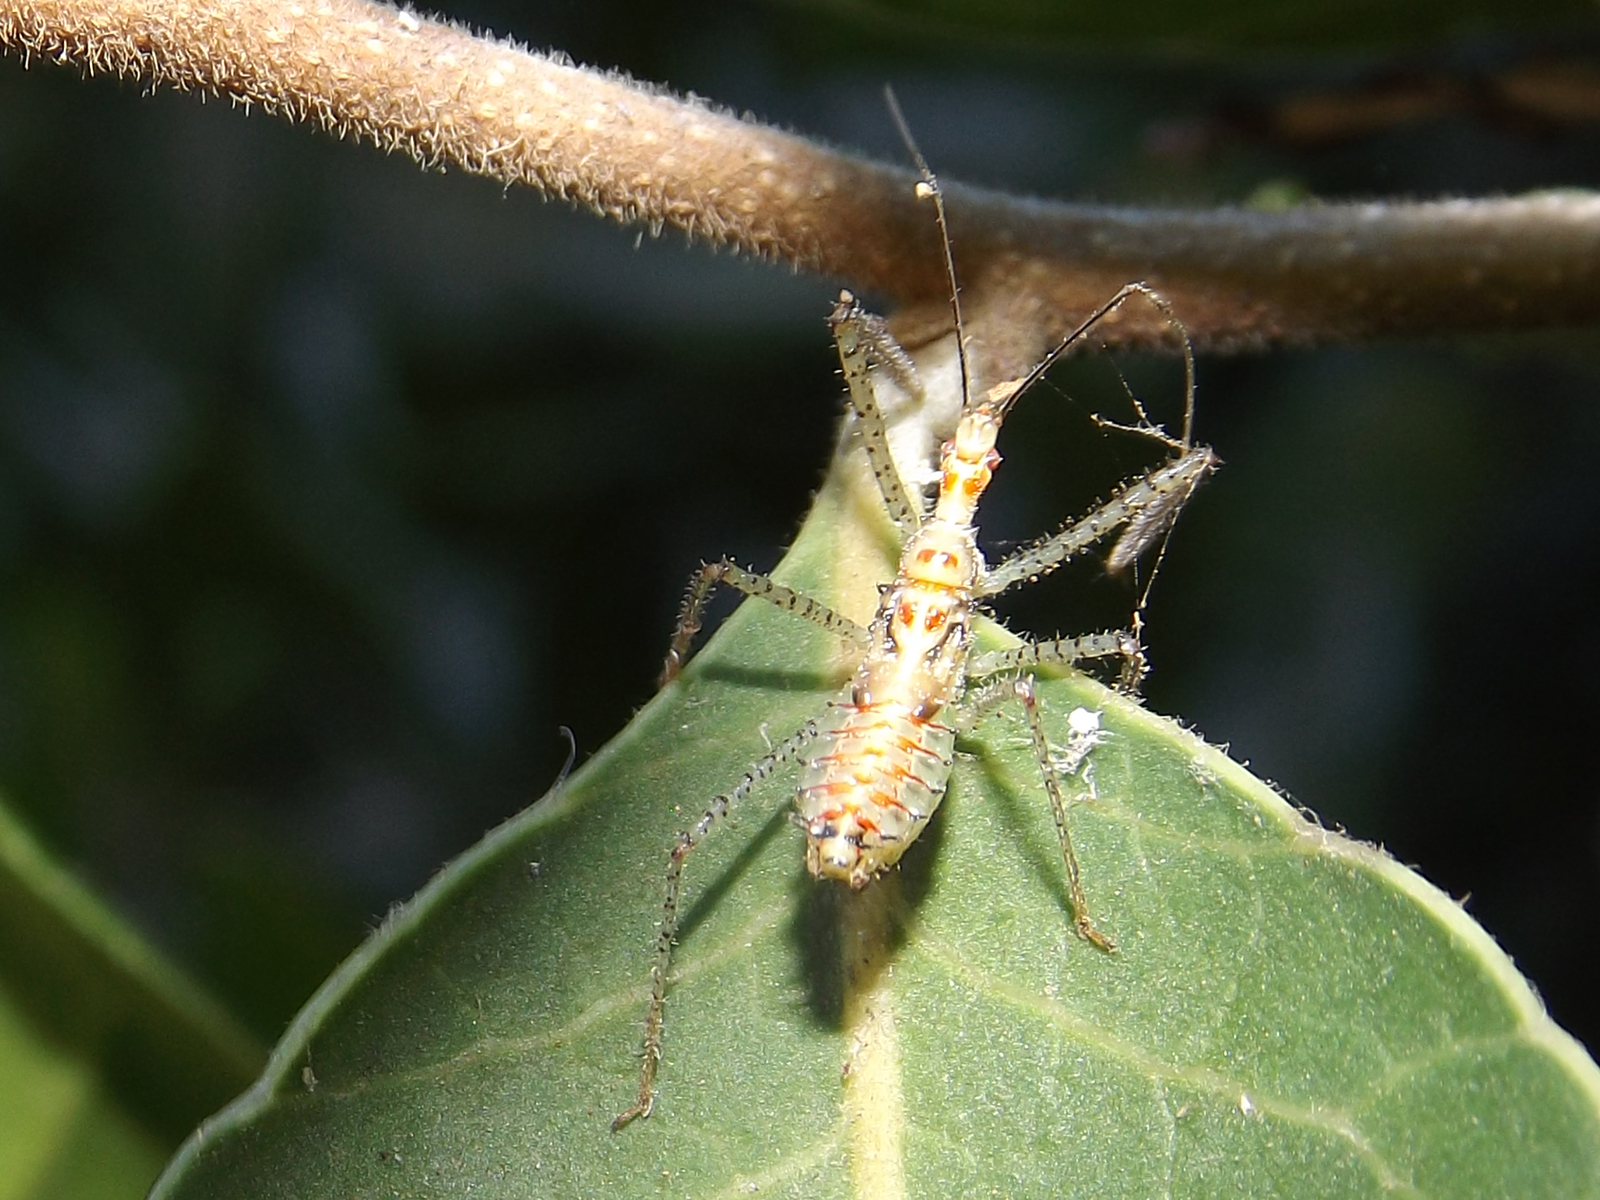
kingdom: Animalia
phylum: Arthropoda
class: Insecta
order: Hemiptera
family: Reduviidae
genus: Zelus
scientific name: Zelus renardii
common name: Assassin bug
